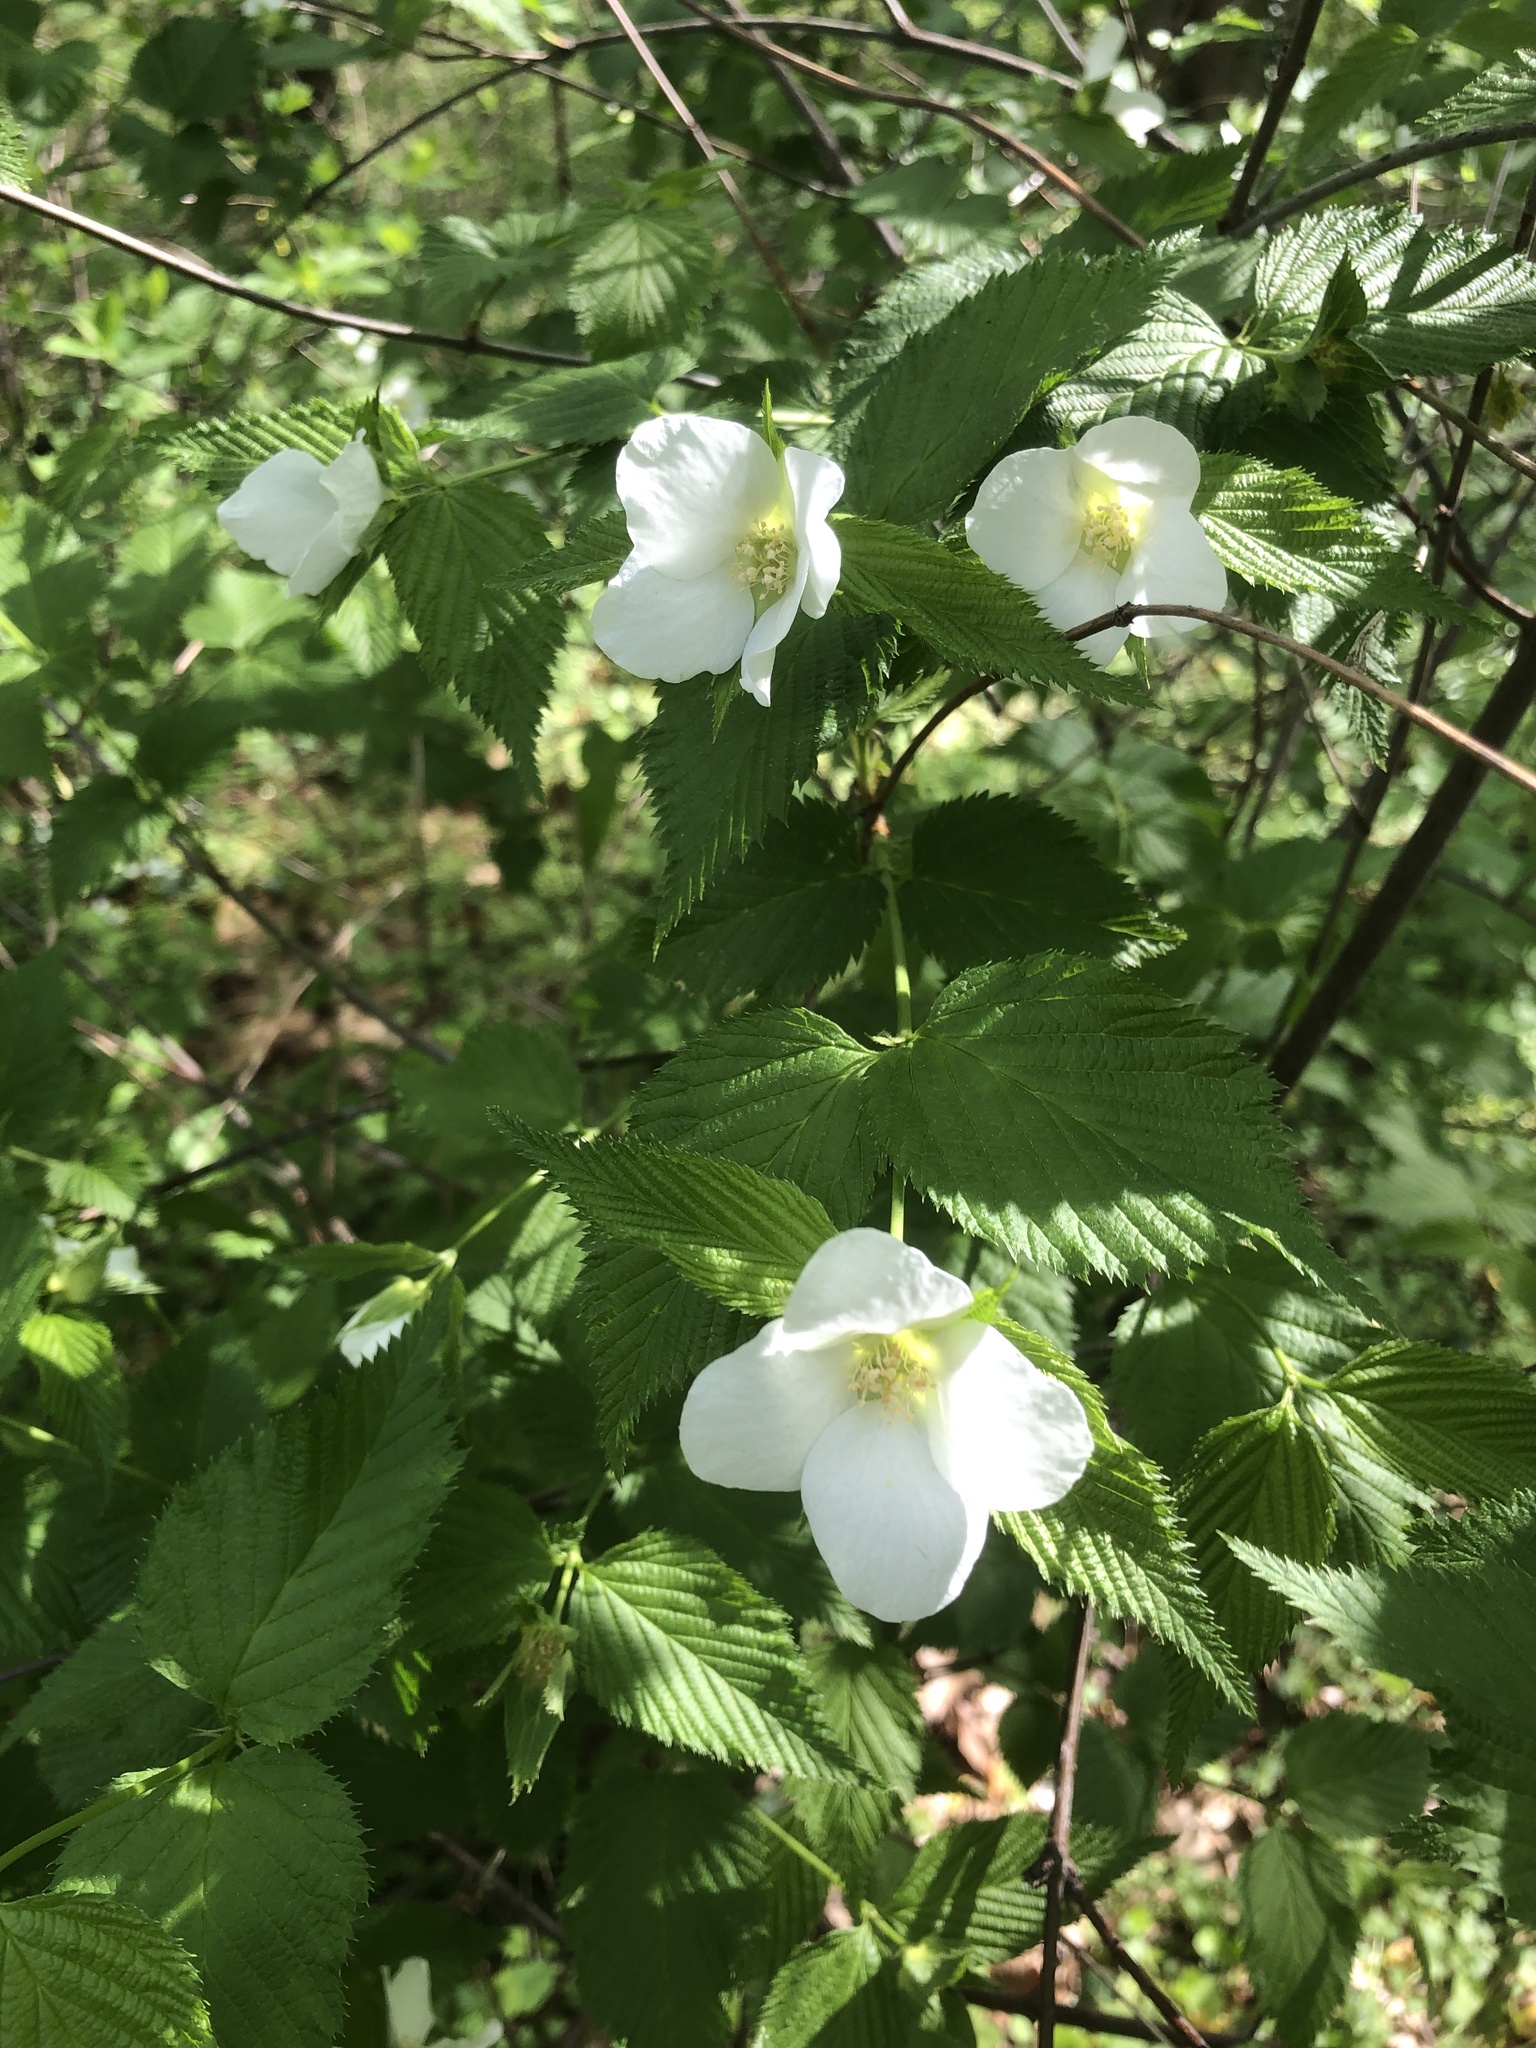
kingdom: Plantae
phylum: Tracheophyta
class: Magnoliopsida
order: Rosales
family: Rosaceae
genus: Rhodotypos
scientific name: Rhodotypos scandens
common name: Jetbead
